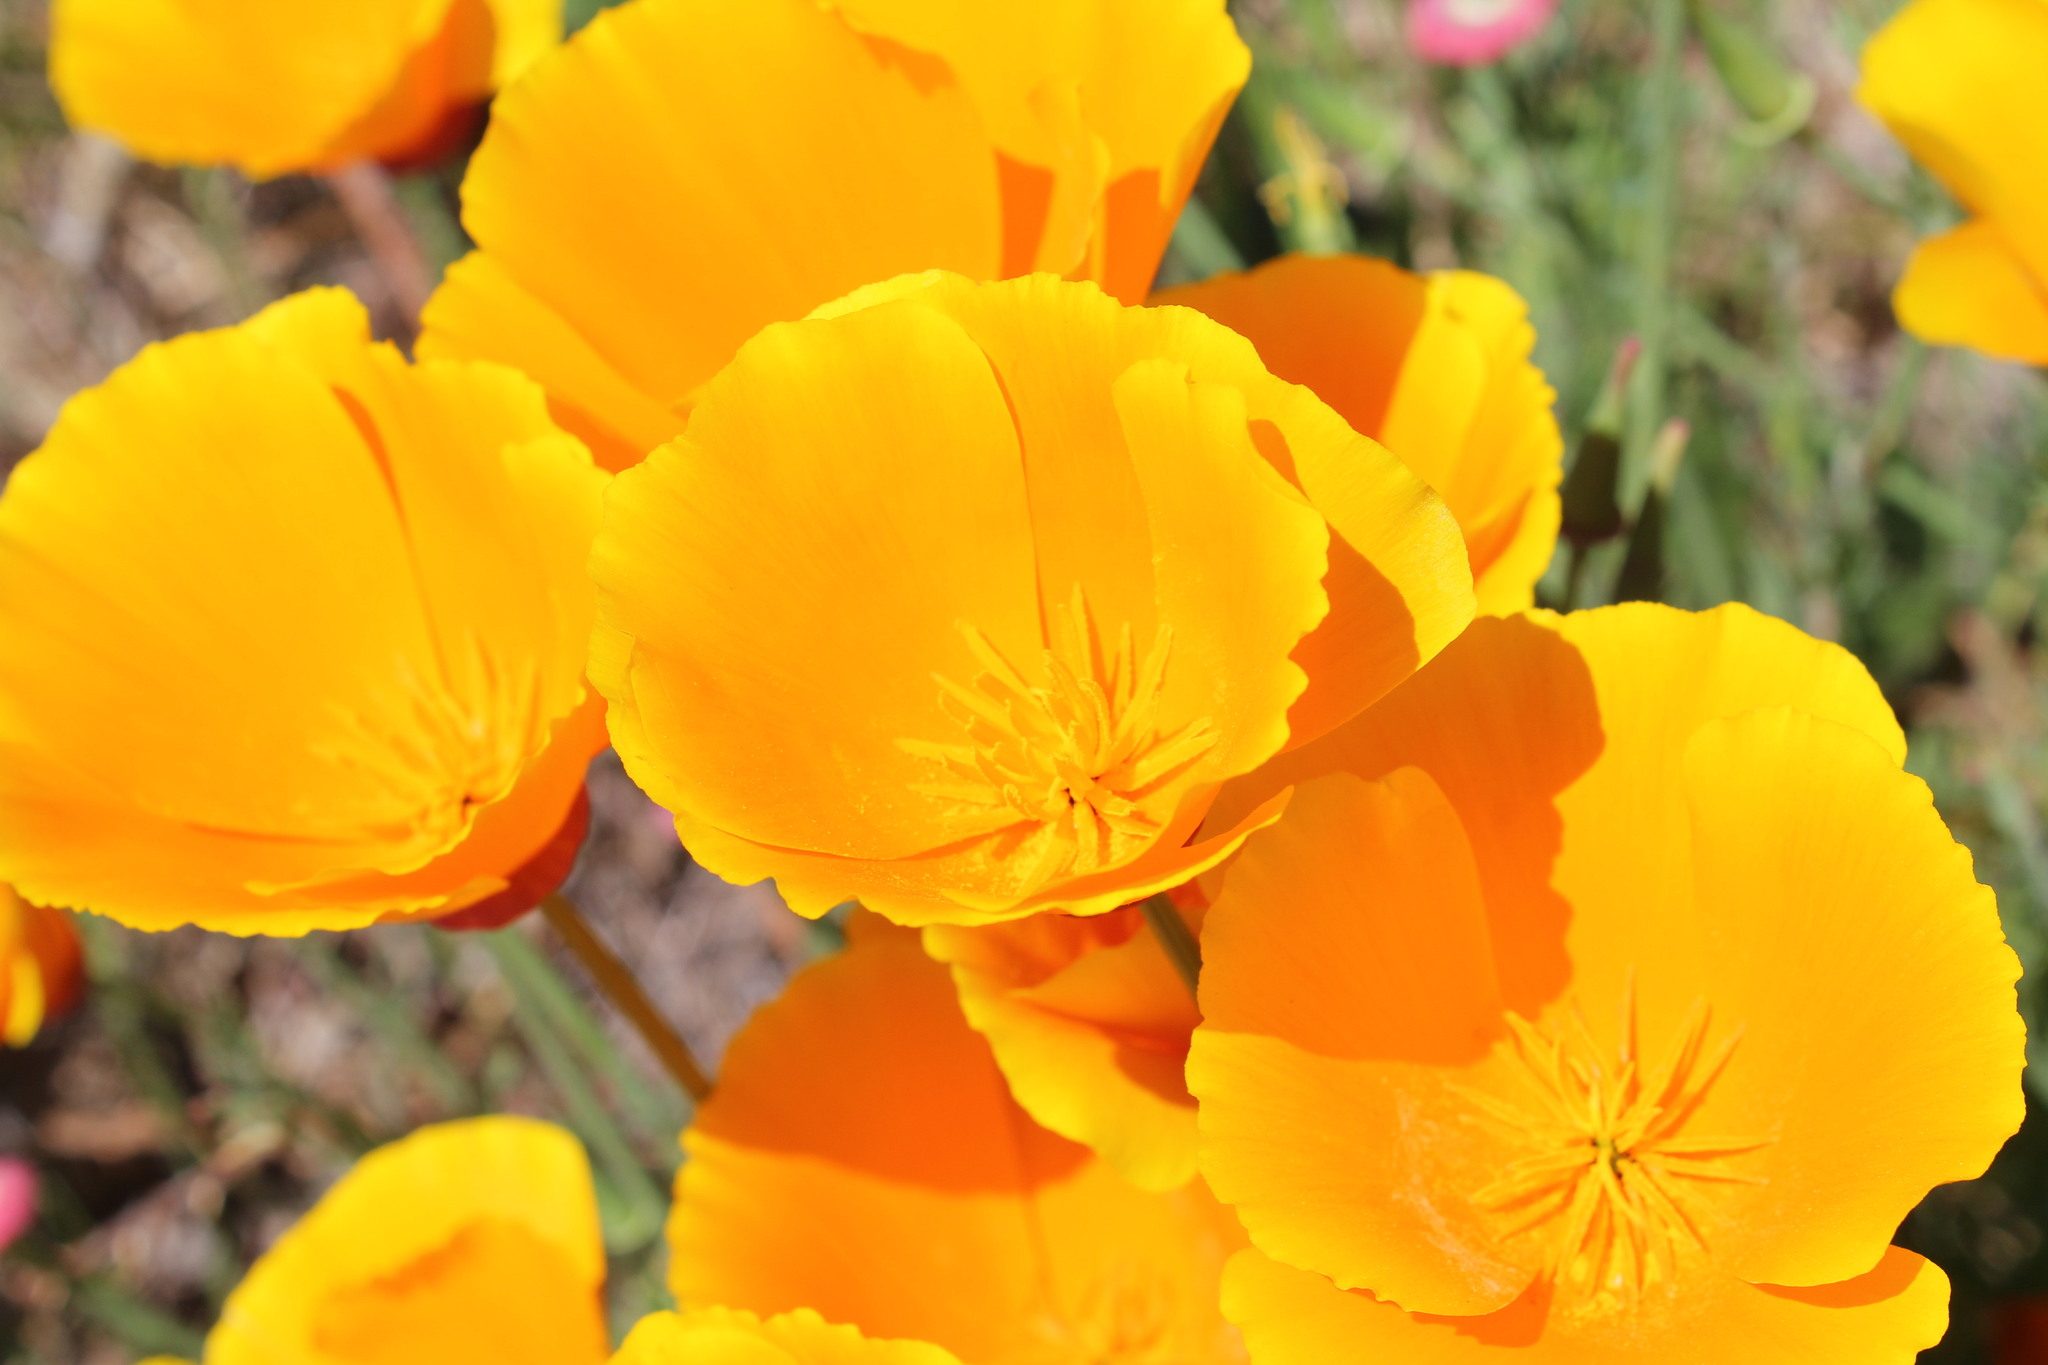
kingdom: Plantae
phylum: Tracheophyta
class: Magnoliopsida
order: Ranunculales
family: Papaveraceae
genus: Eschscholzia
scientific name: Eschscholzia californica
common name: California poppy
